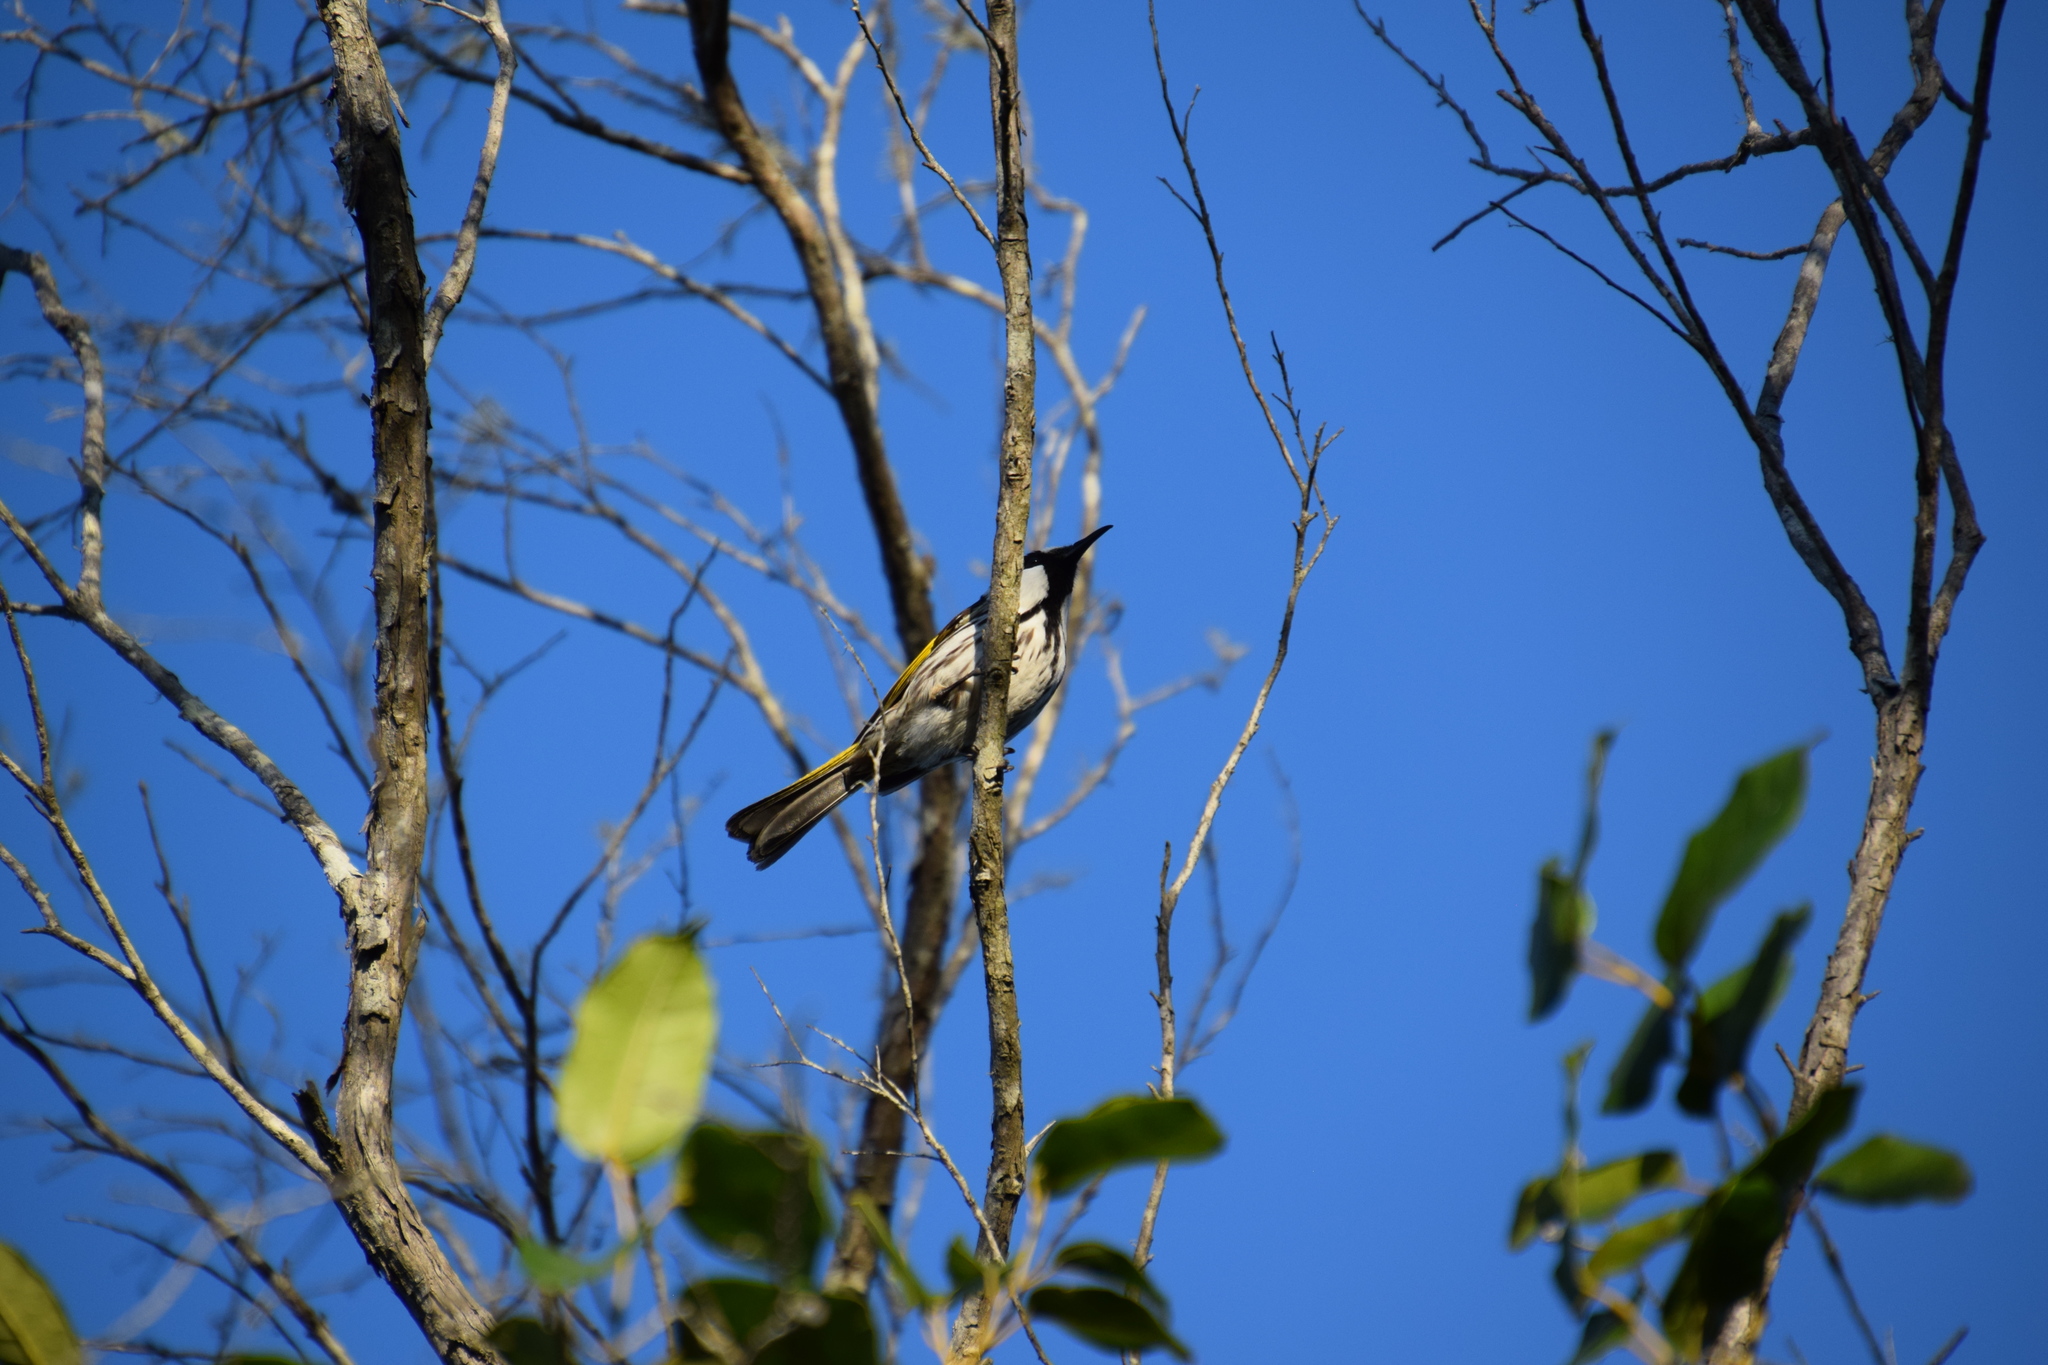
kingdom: Animalia
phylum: Chordata
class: Aves
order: Passeriformes
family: Meliphagidae
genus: Phylidonyris
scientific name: Phylidonyris niger
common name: White-cheeked honeyeater
